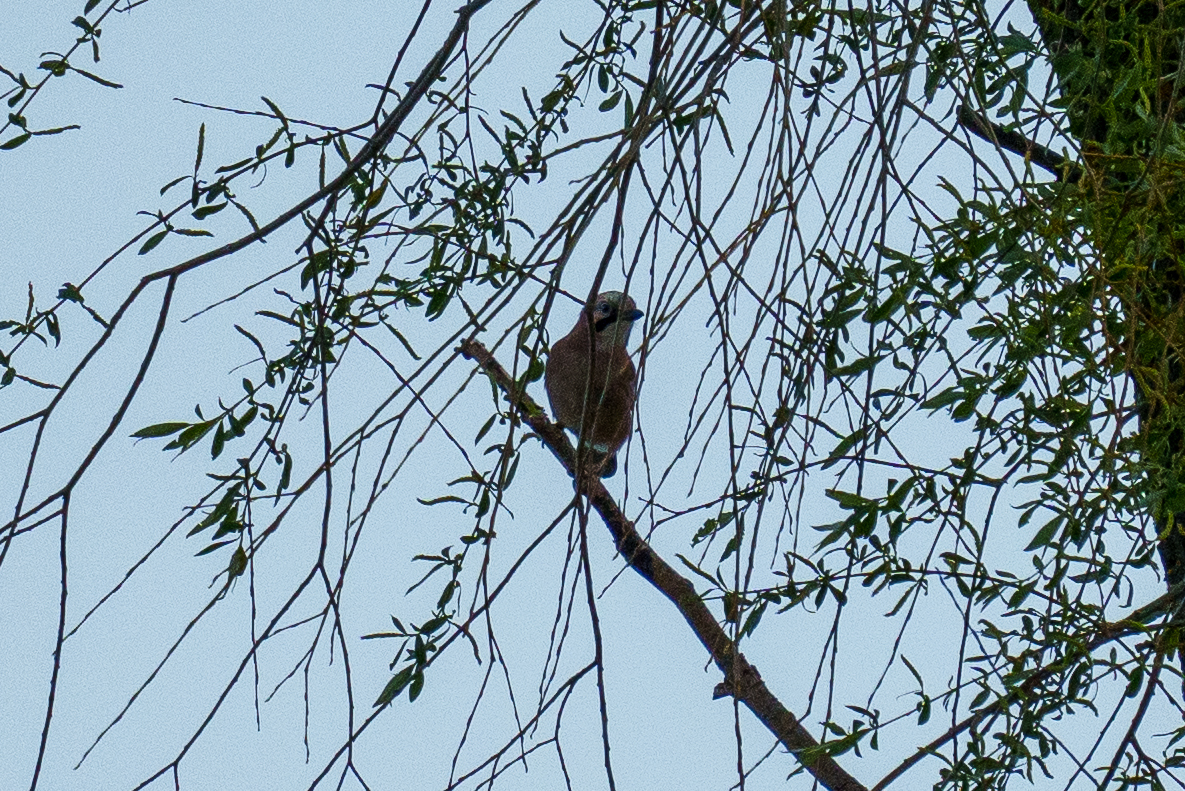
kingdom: Animalia
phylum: Chordata
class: Aves
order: Passeriformes
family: Corvidae
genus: Garrulus
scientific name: Garrulus glandarius
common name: Eurasian jay
